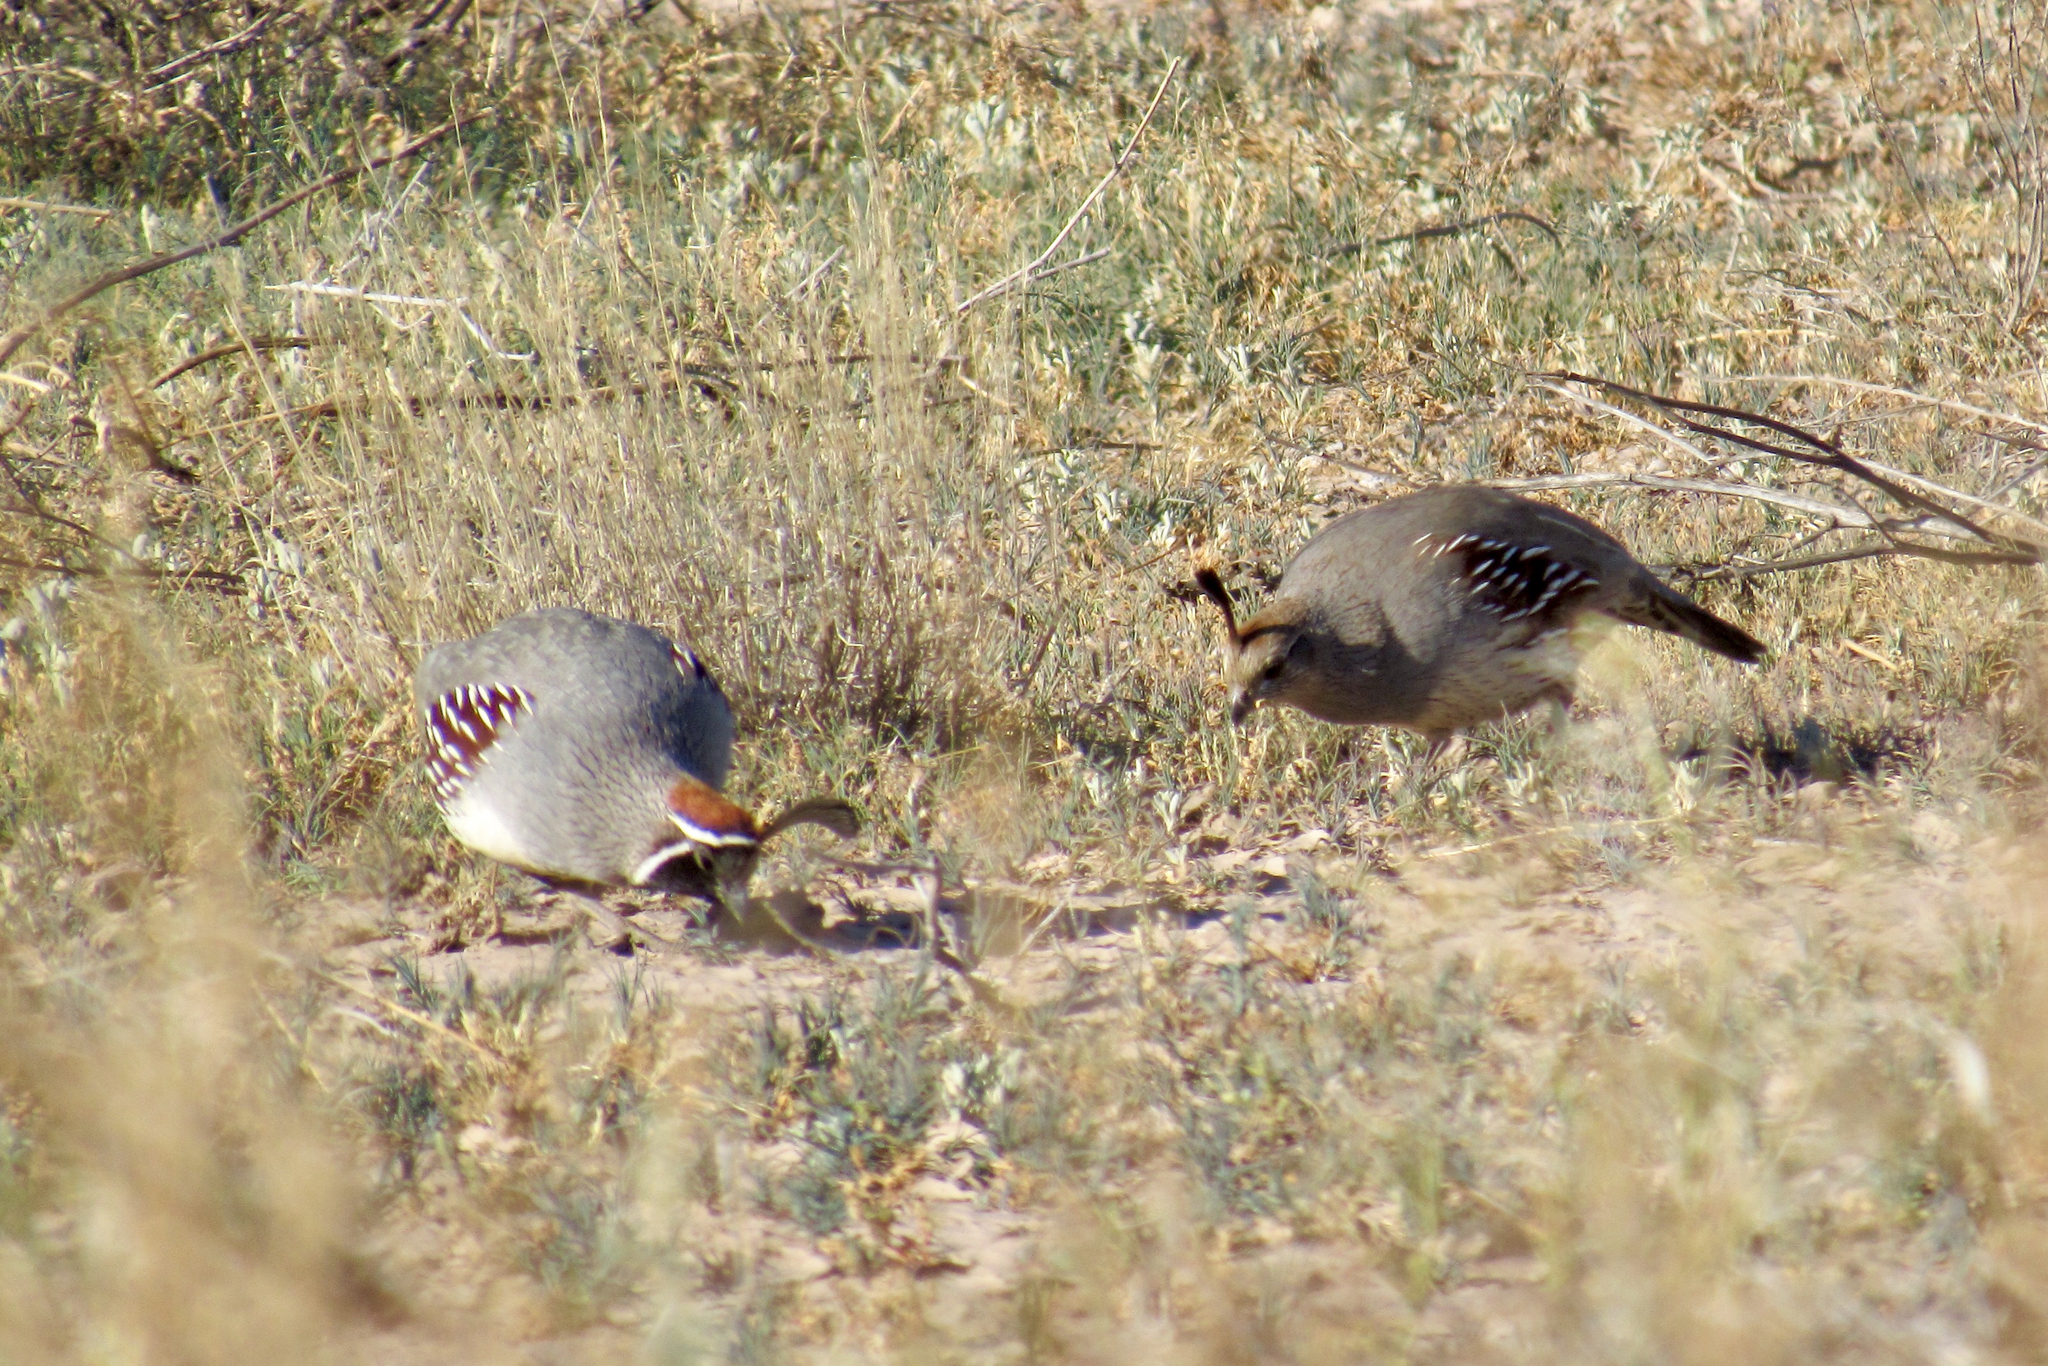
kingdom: Animalia
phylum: Chordata
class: Aves
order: Galliformes
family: Odontophoridae
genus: Callipepla
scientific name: Callipepla gambelii
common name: Gambel's quail
